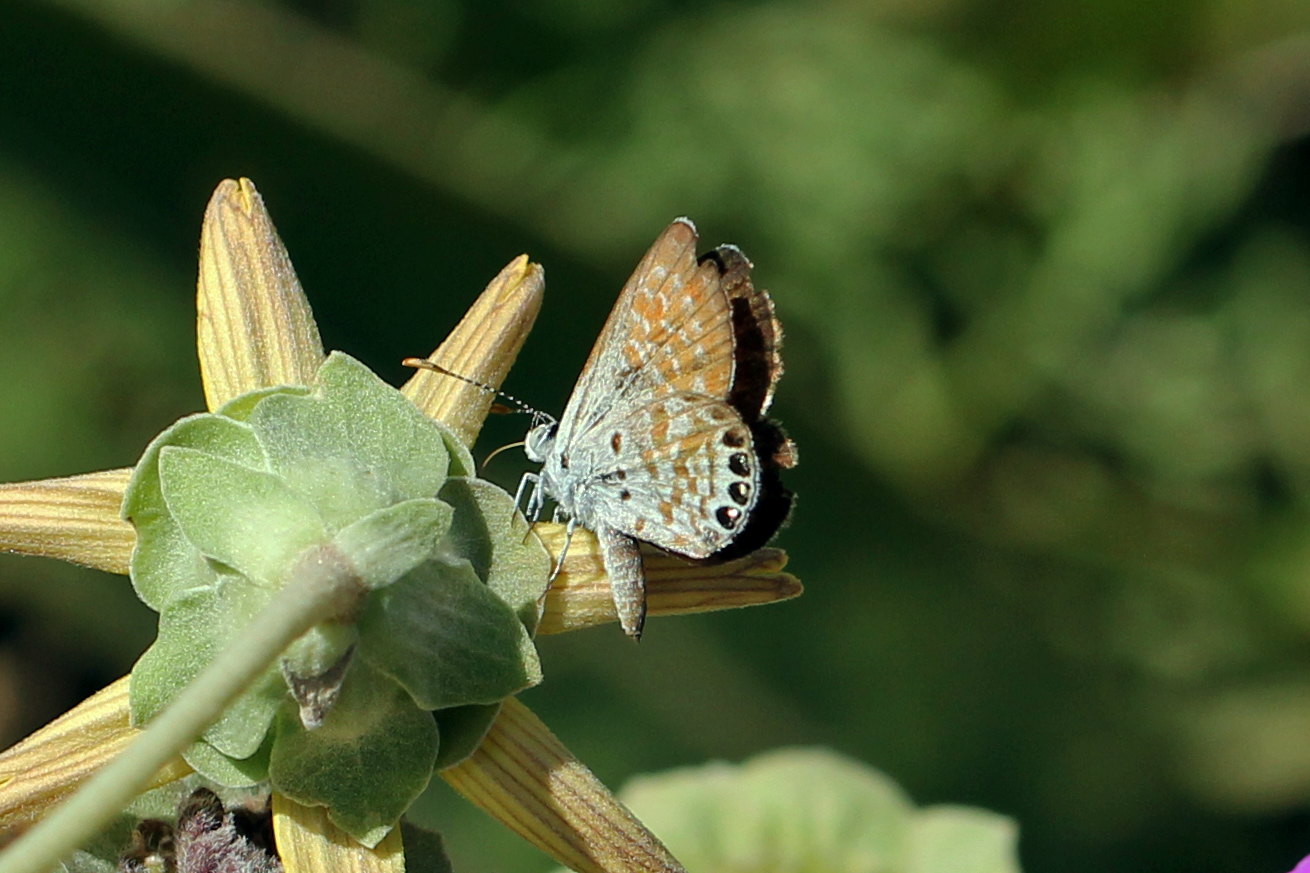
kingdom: Animalia
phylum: Arthropoda
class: Insecta
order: Lepidoptera
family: Lycaenidae
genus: Brephidium
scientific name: Brephidium exilis
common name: Pygmy blue
